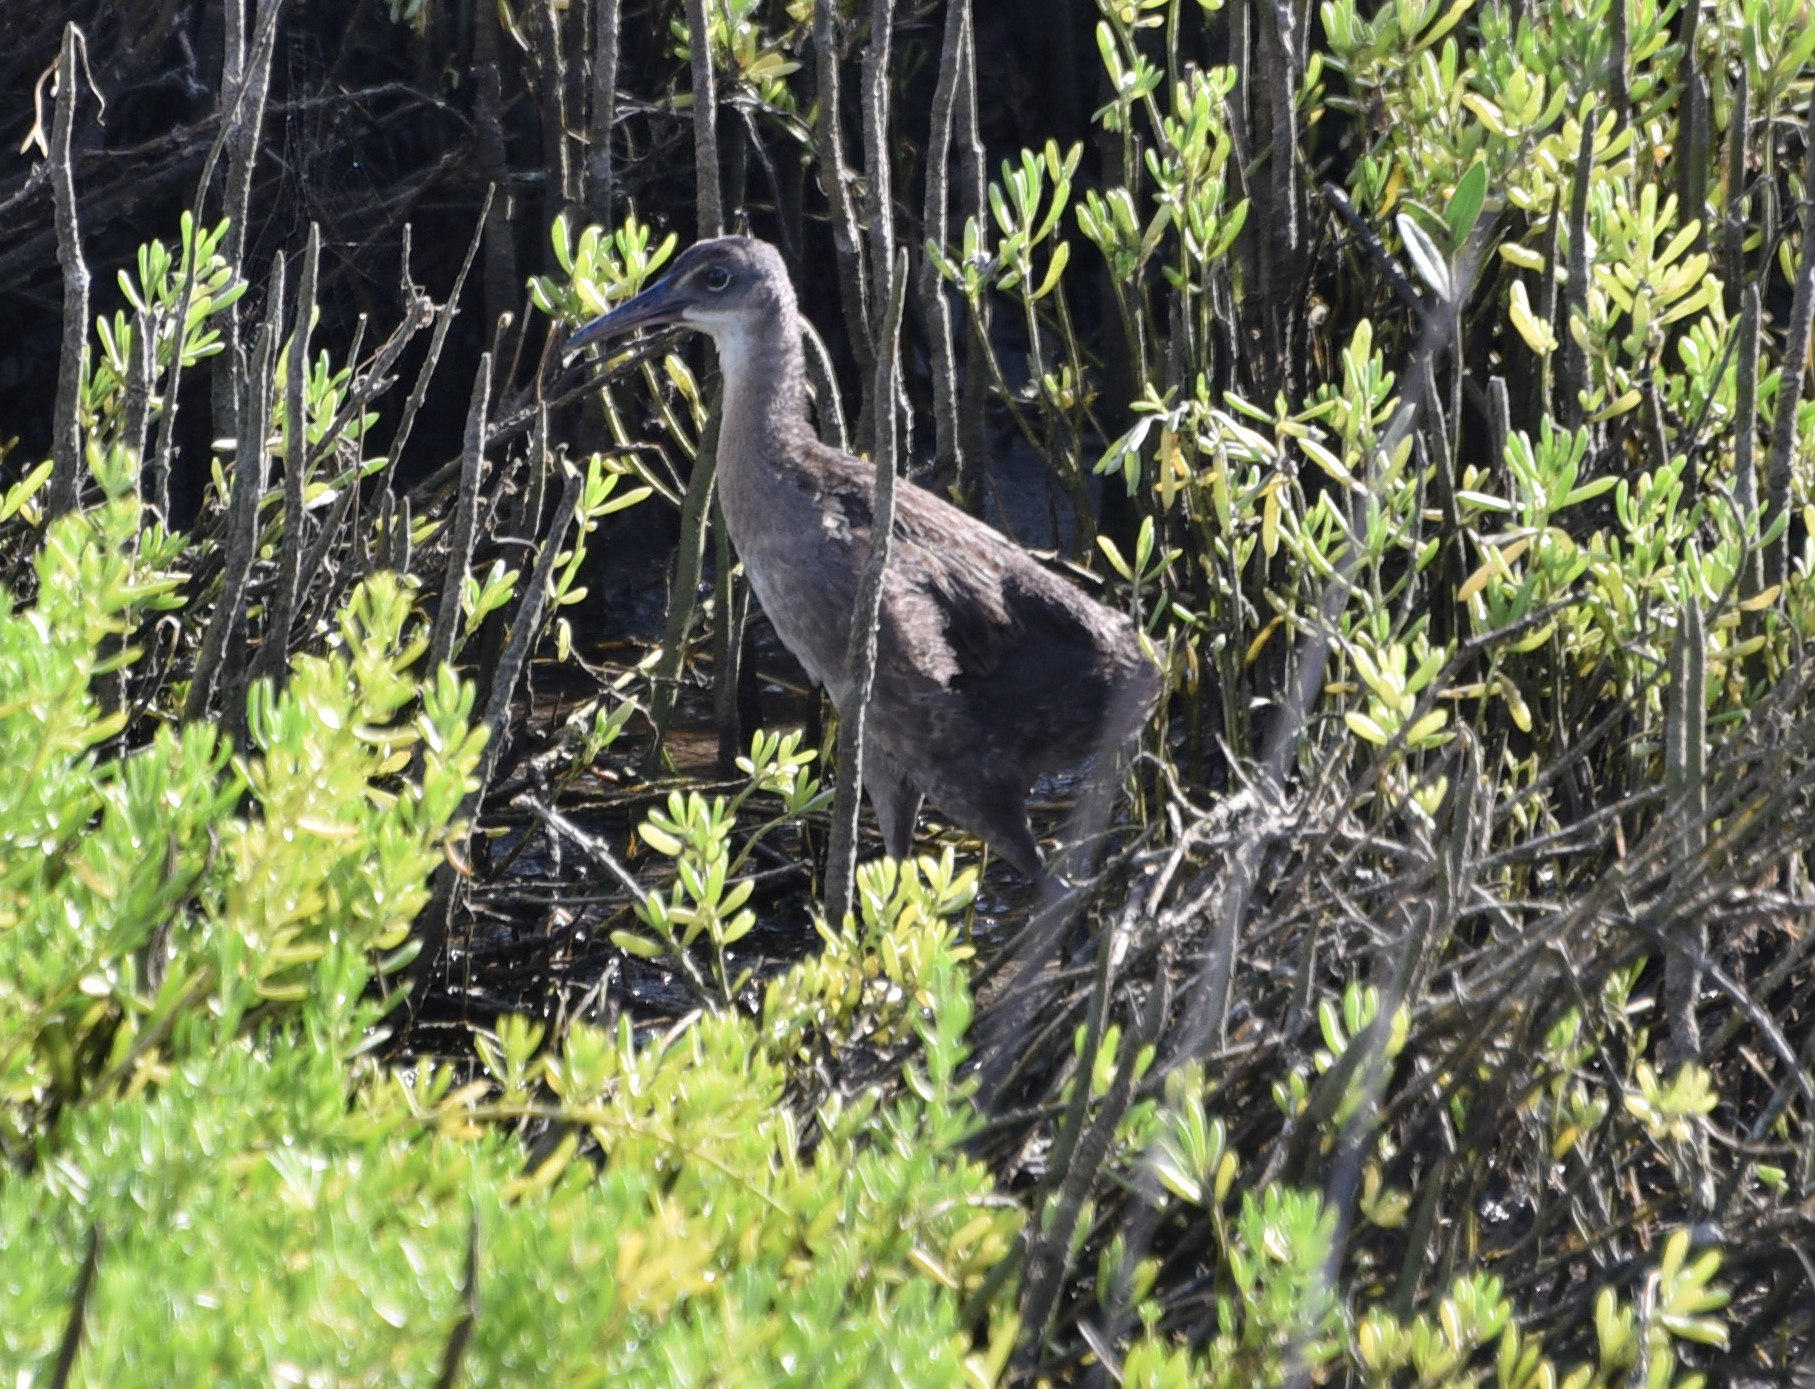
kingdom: Animalia
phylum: Chordata
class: Aves
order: Gruiformes
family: Rallidae
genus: Rallus
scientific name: Rallus crepitans
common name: Clapper rail
